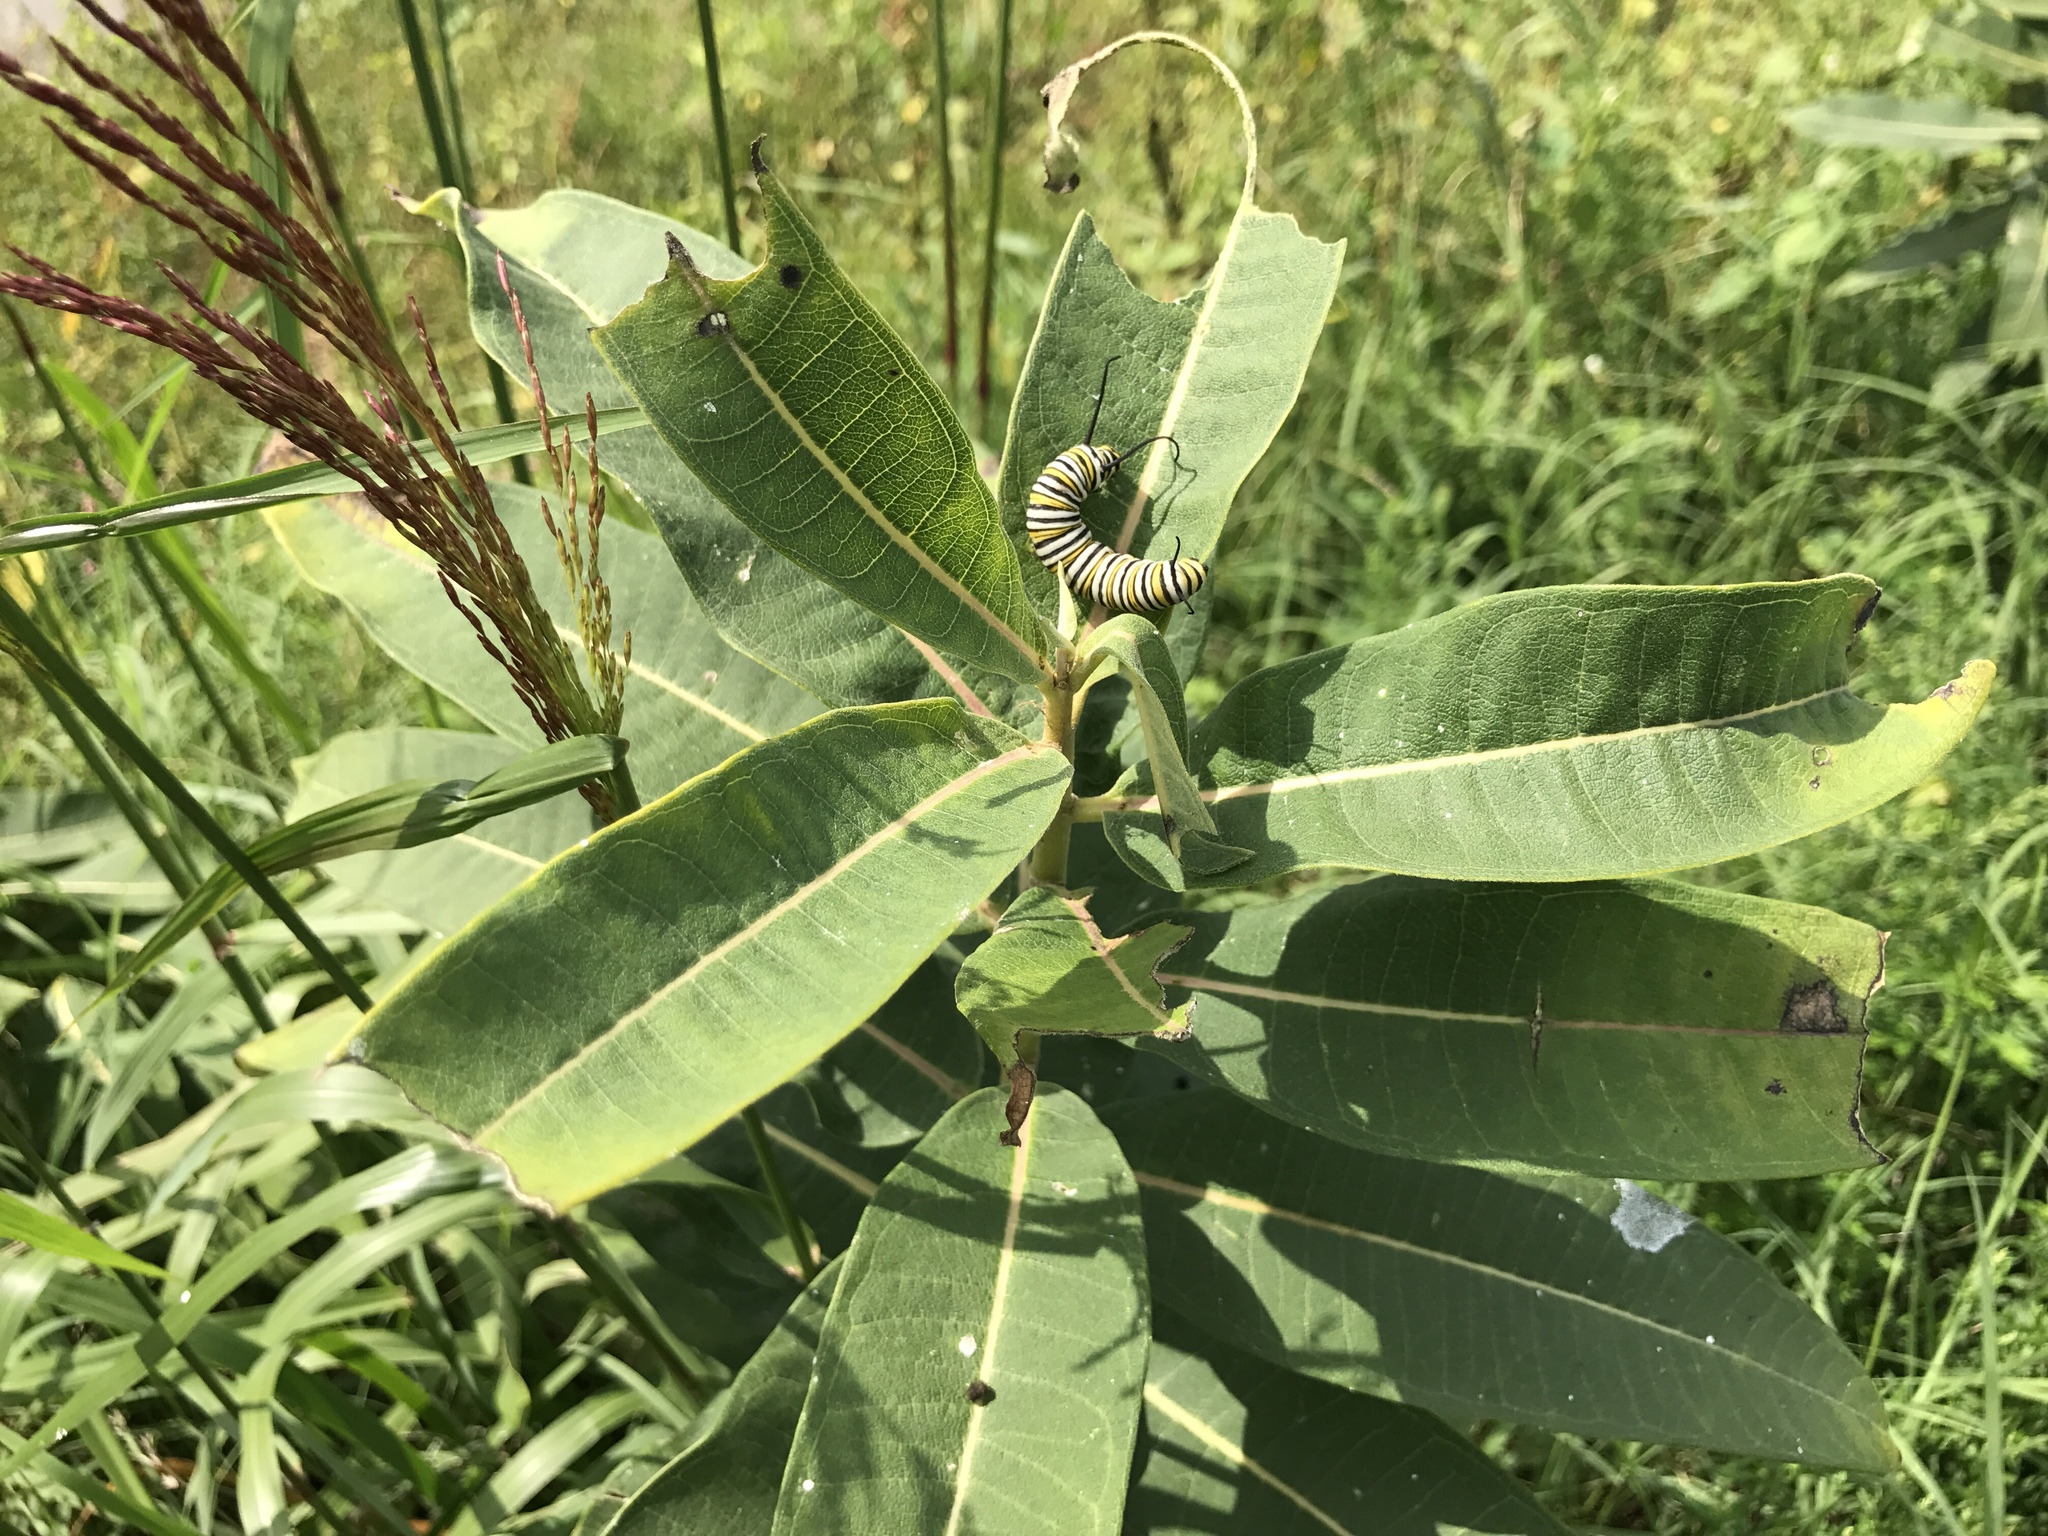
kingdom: Animalia
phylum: Arthropoda
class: Insecta
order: Lepidoptera
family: Nymphalidae
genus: Danaus
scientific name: Danaus plexippus
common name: Monarch
